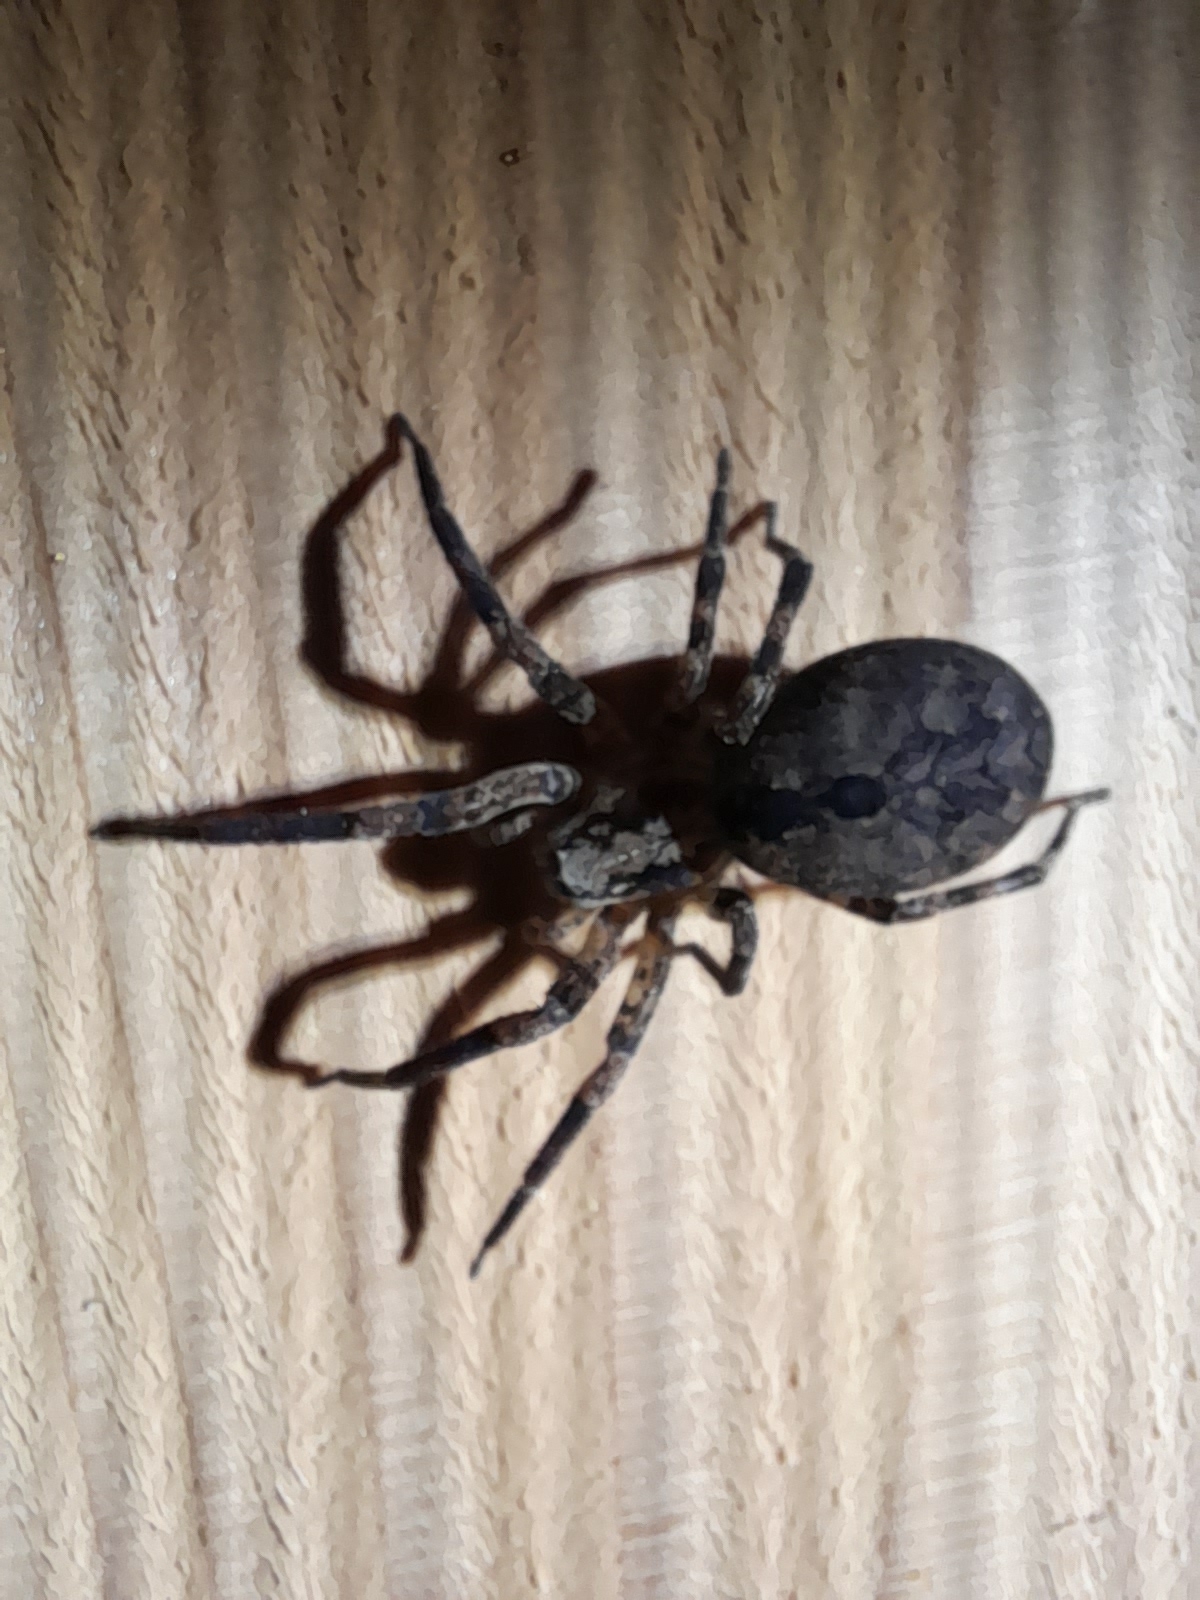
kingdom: Animalia
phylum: Arthropoda
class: Arachnida
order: Araneae
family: Zoropsidae
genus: Zoropsis
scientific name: Zoropsis spinimana
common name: Zoropsid spider
